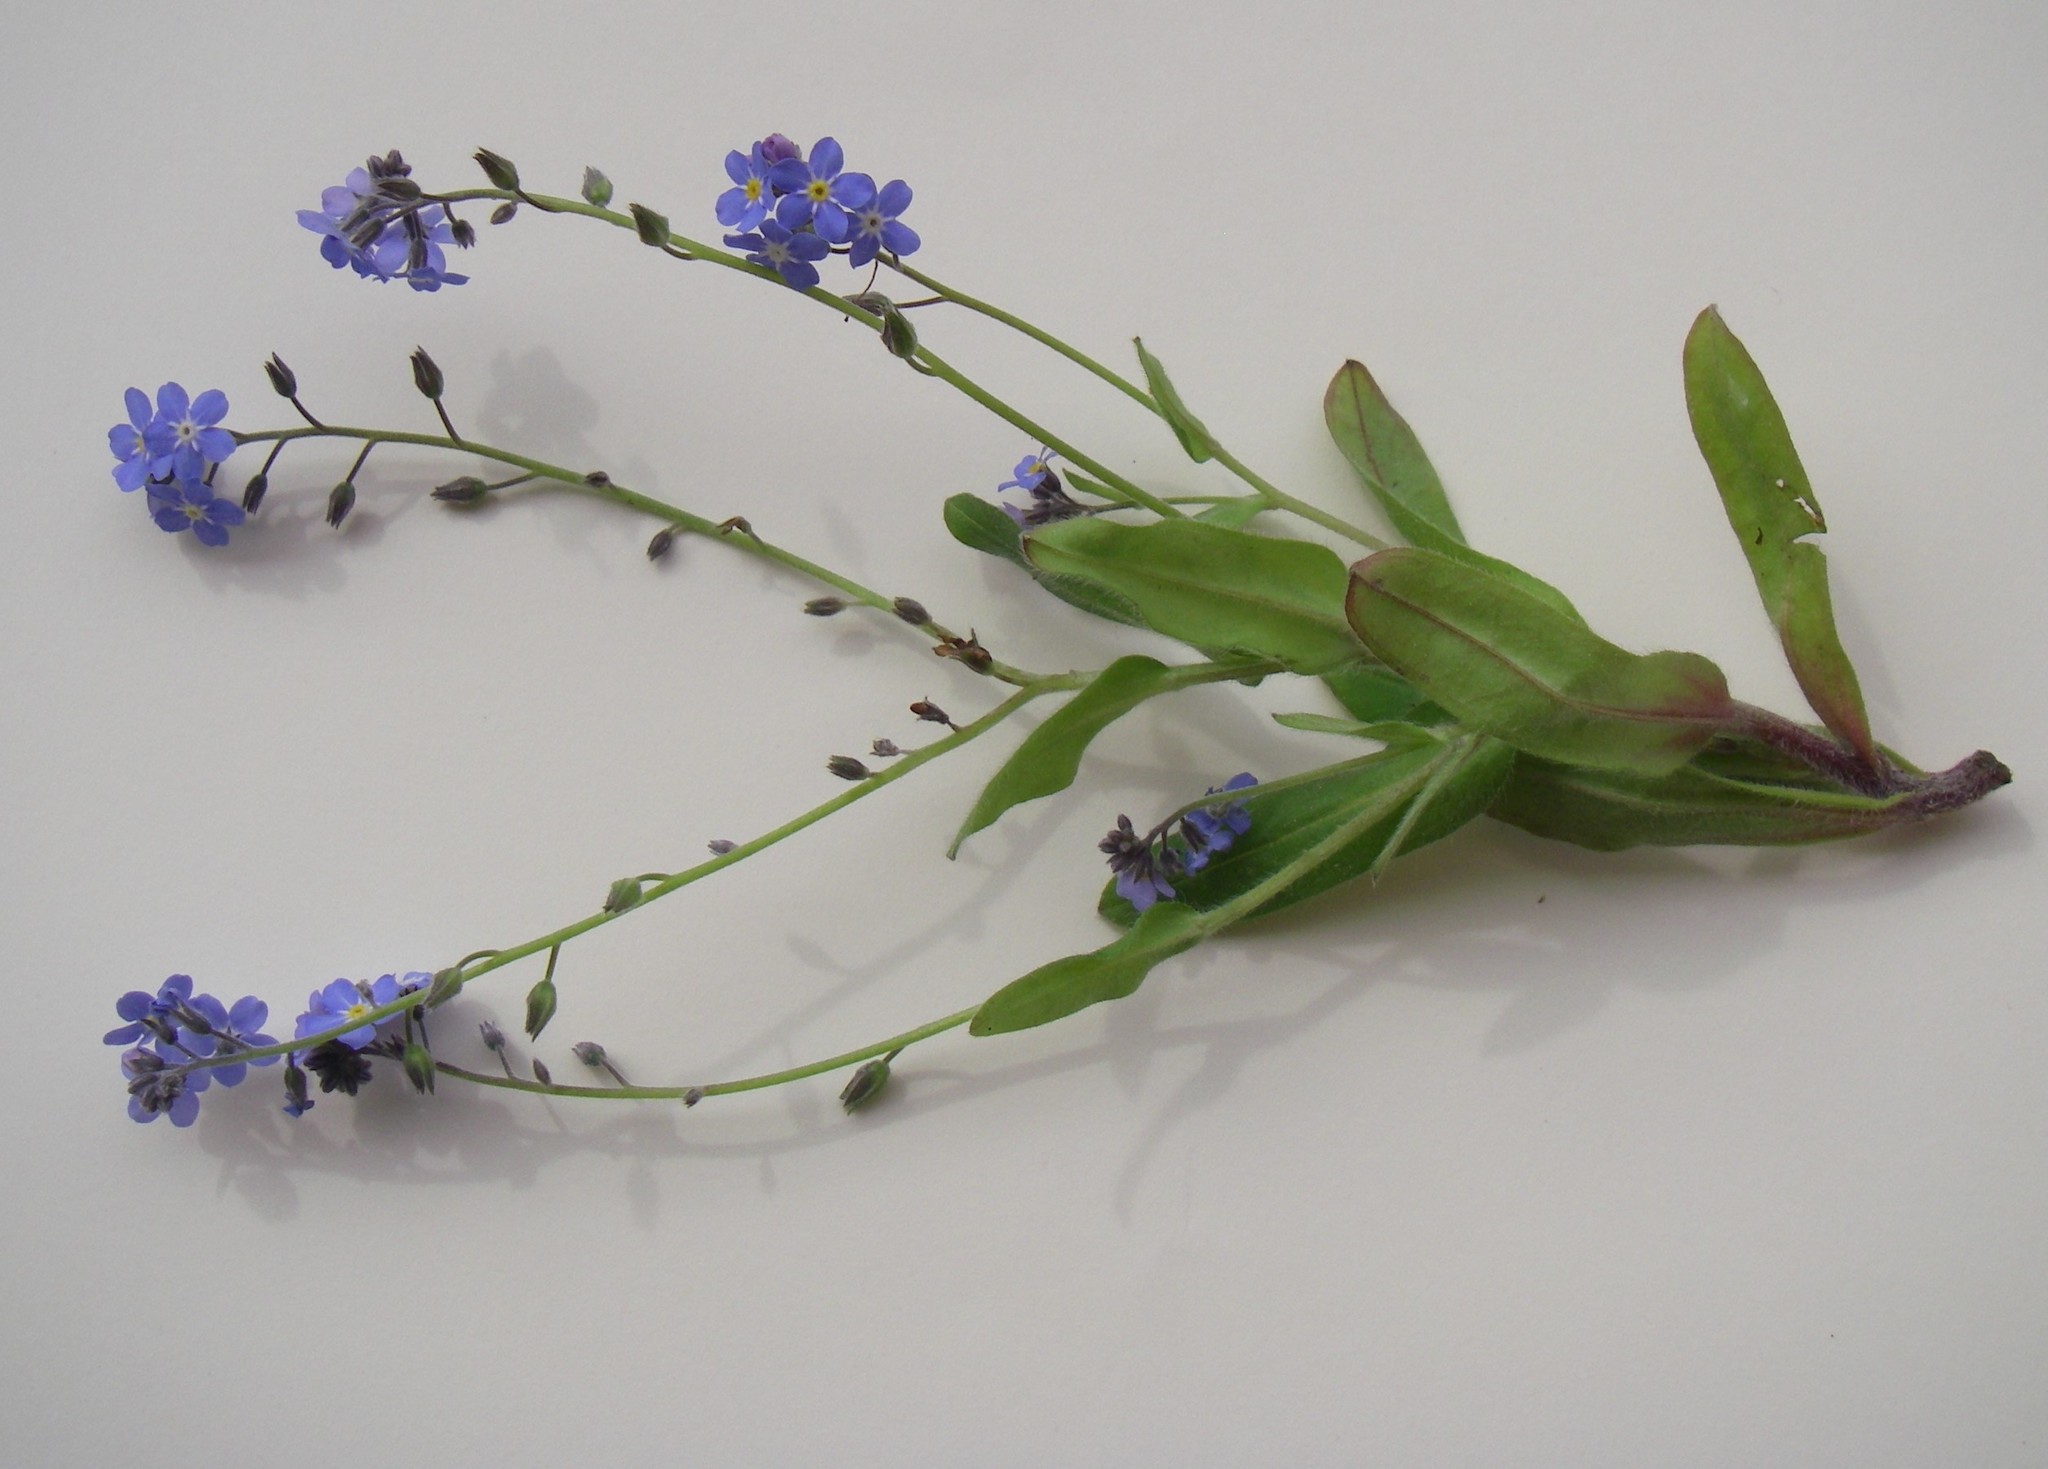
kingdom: Plantae
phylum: Tracheophyta
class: Magnoliopsida
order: Boraginales
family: Boraginaceae
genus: Myosotis
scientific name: Myosotis sylvatica
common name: Wood forget-me-not
